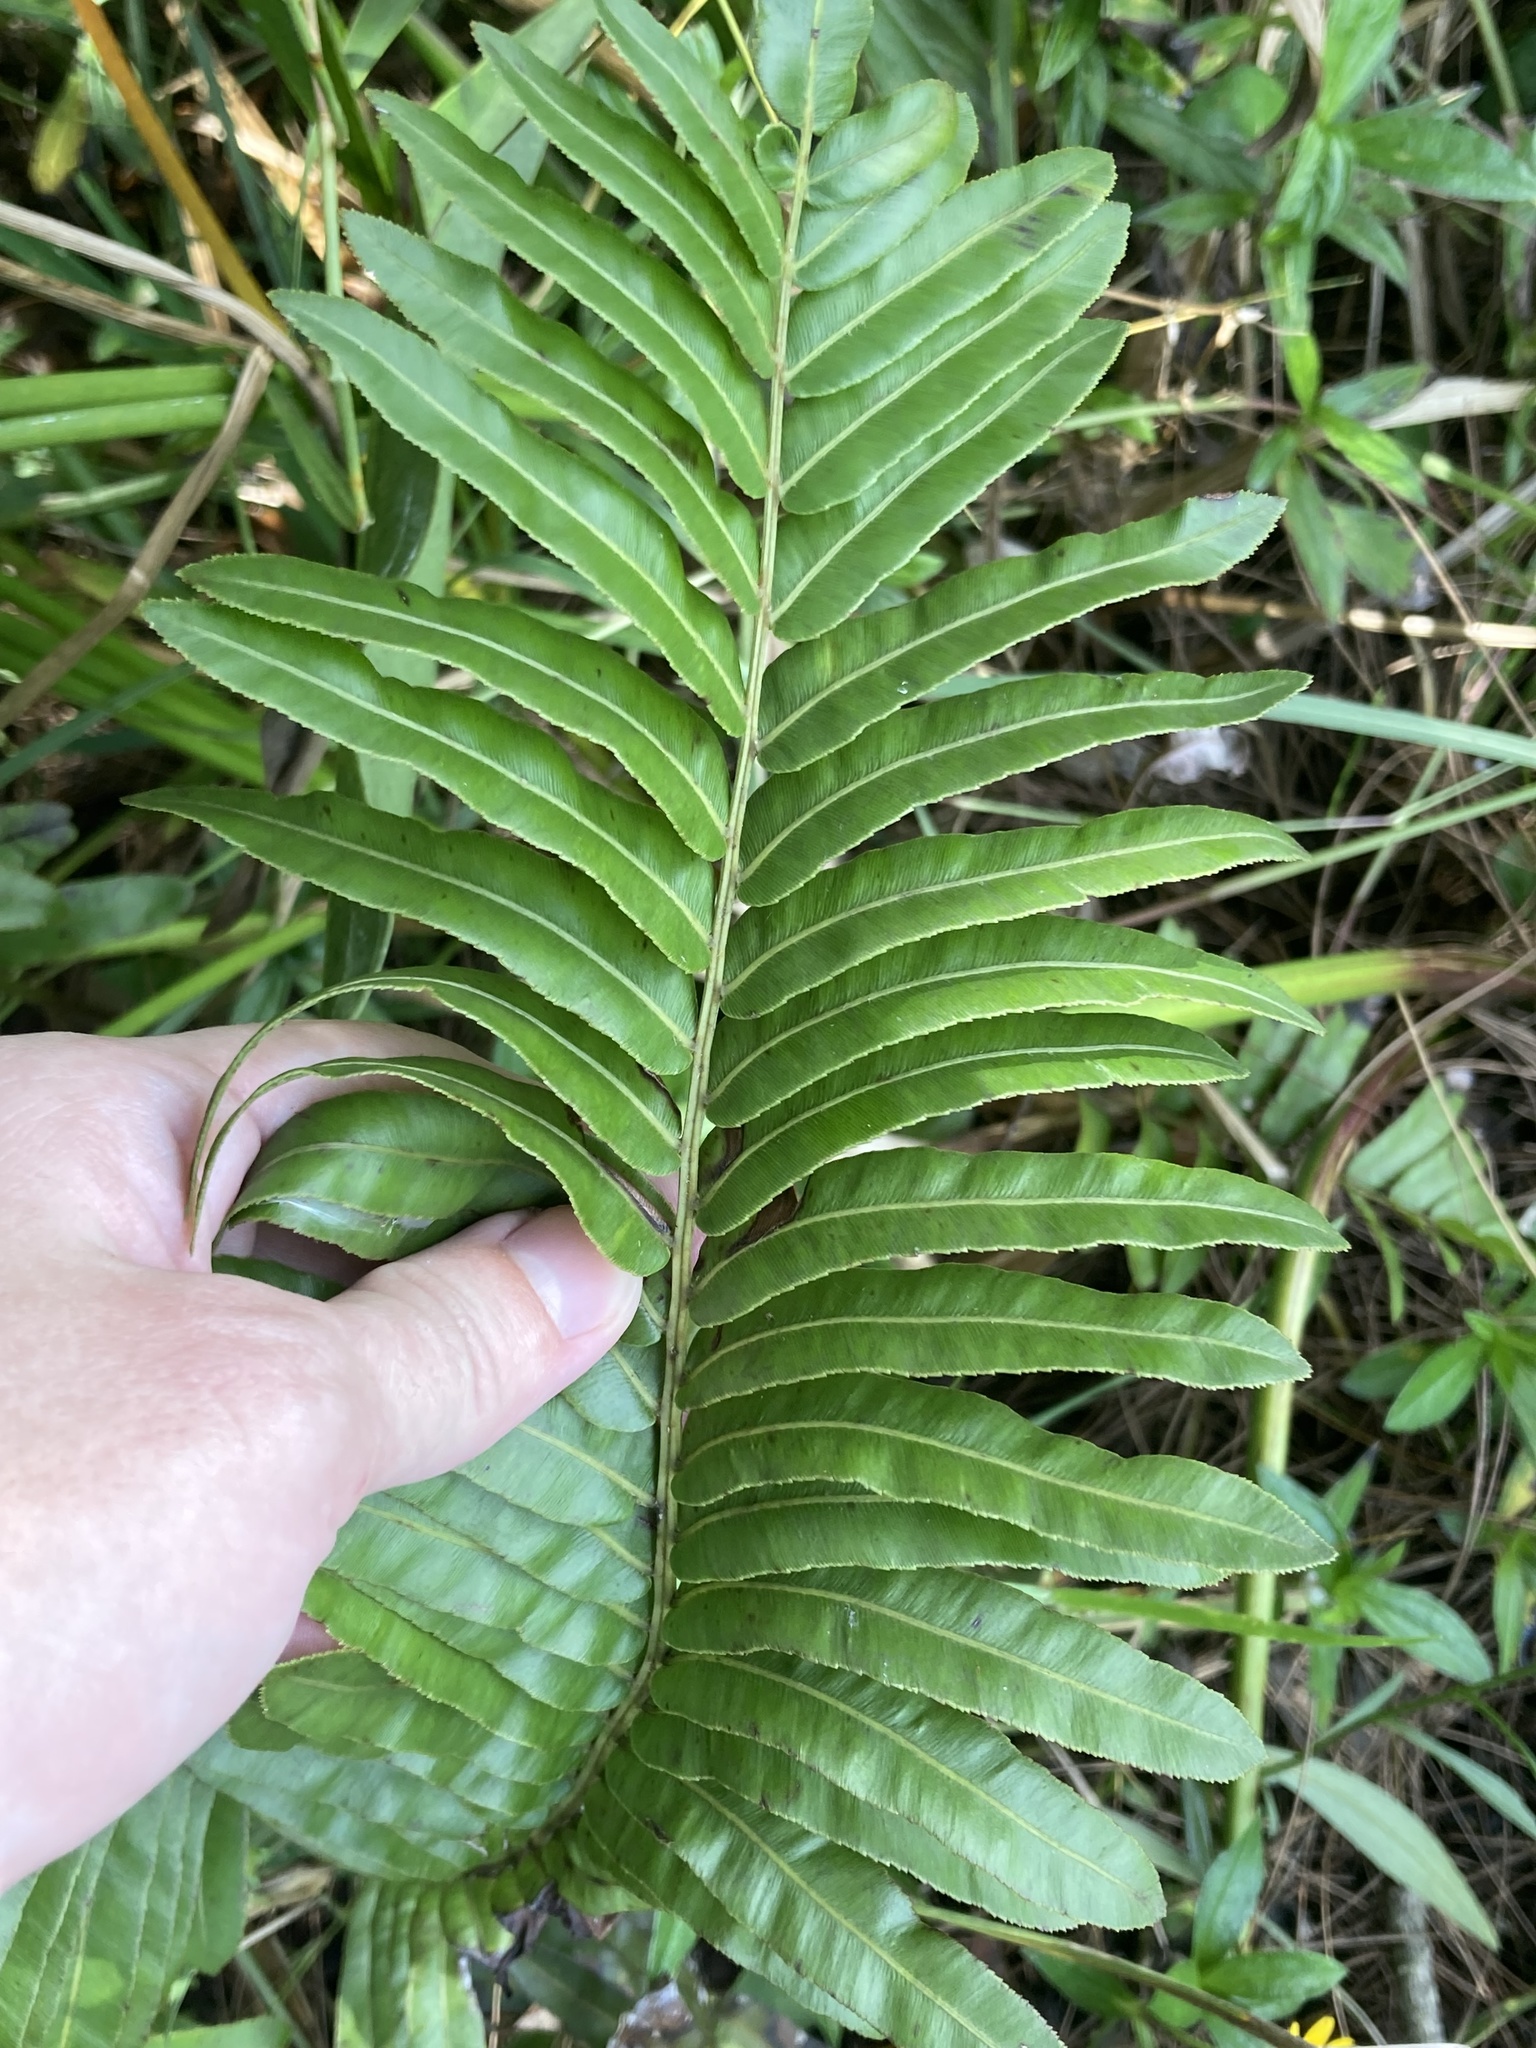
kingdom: Plantae
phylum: Tracheophyta
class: Polypodiopsida
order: Polypodiales
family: Blechnaceae
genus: Telmatoblechnum
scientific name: Telmatoblechnum serrulatum
